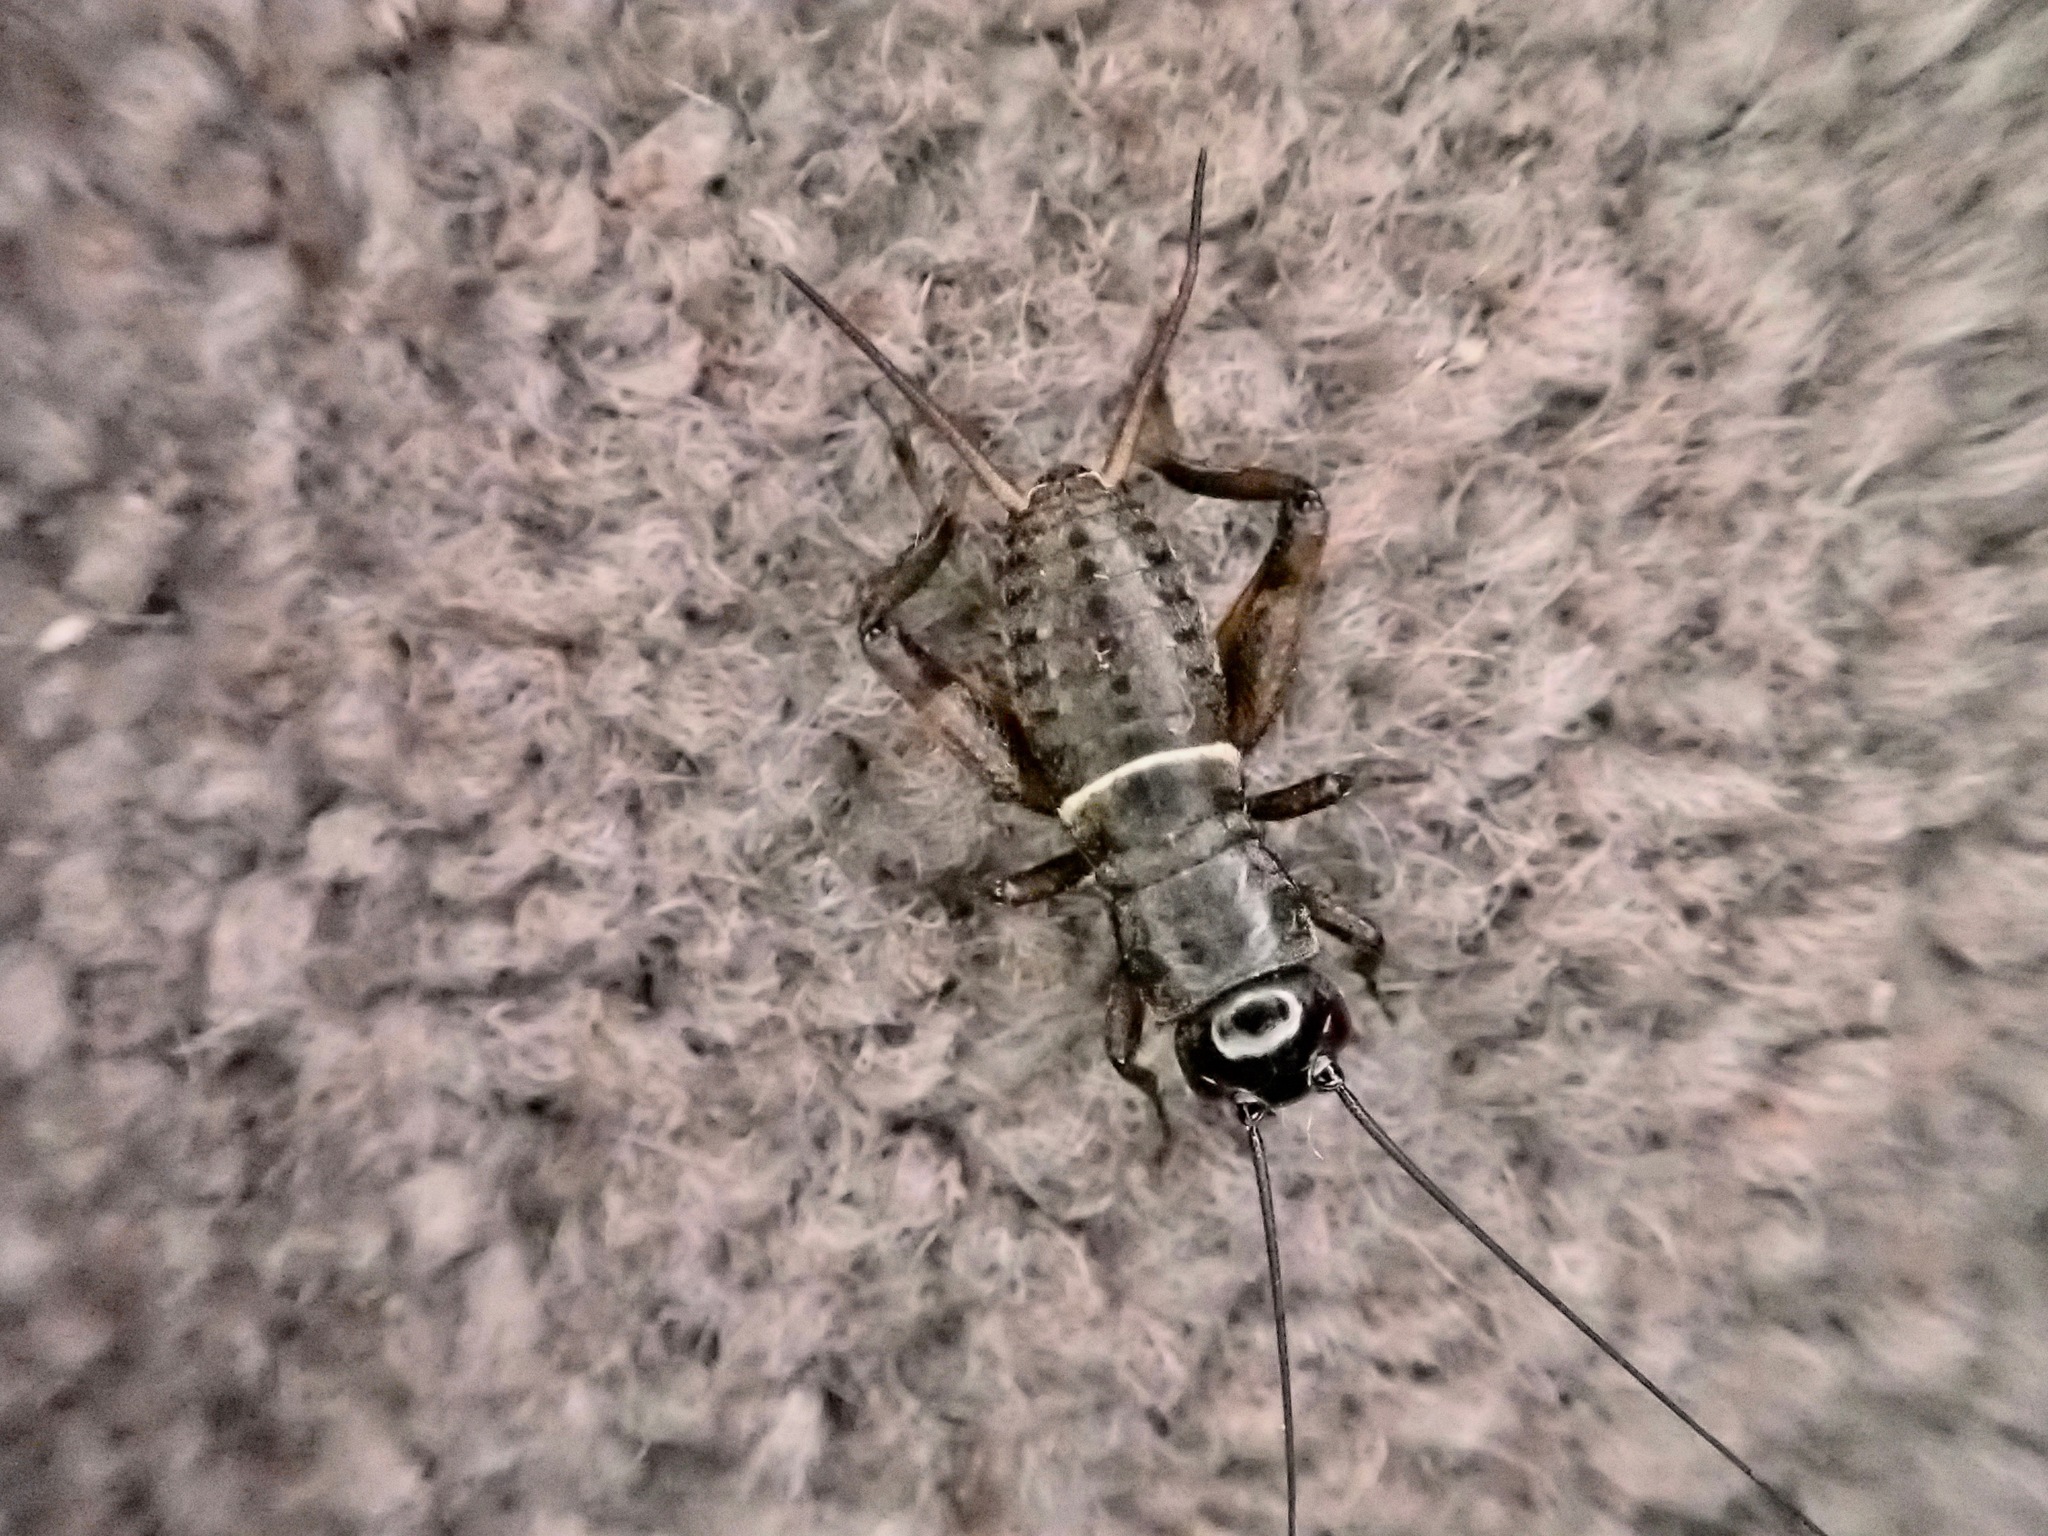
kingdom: Animalia
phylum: Arthropoda
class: Insecta
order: Orthoptera
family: Gryllidae
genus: Teleogryllus
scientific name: Teleogryllus commodus
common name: Black field cricket
